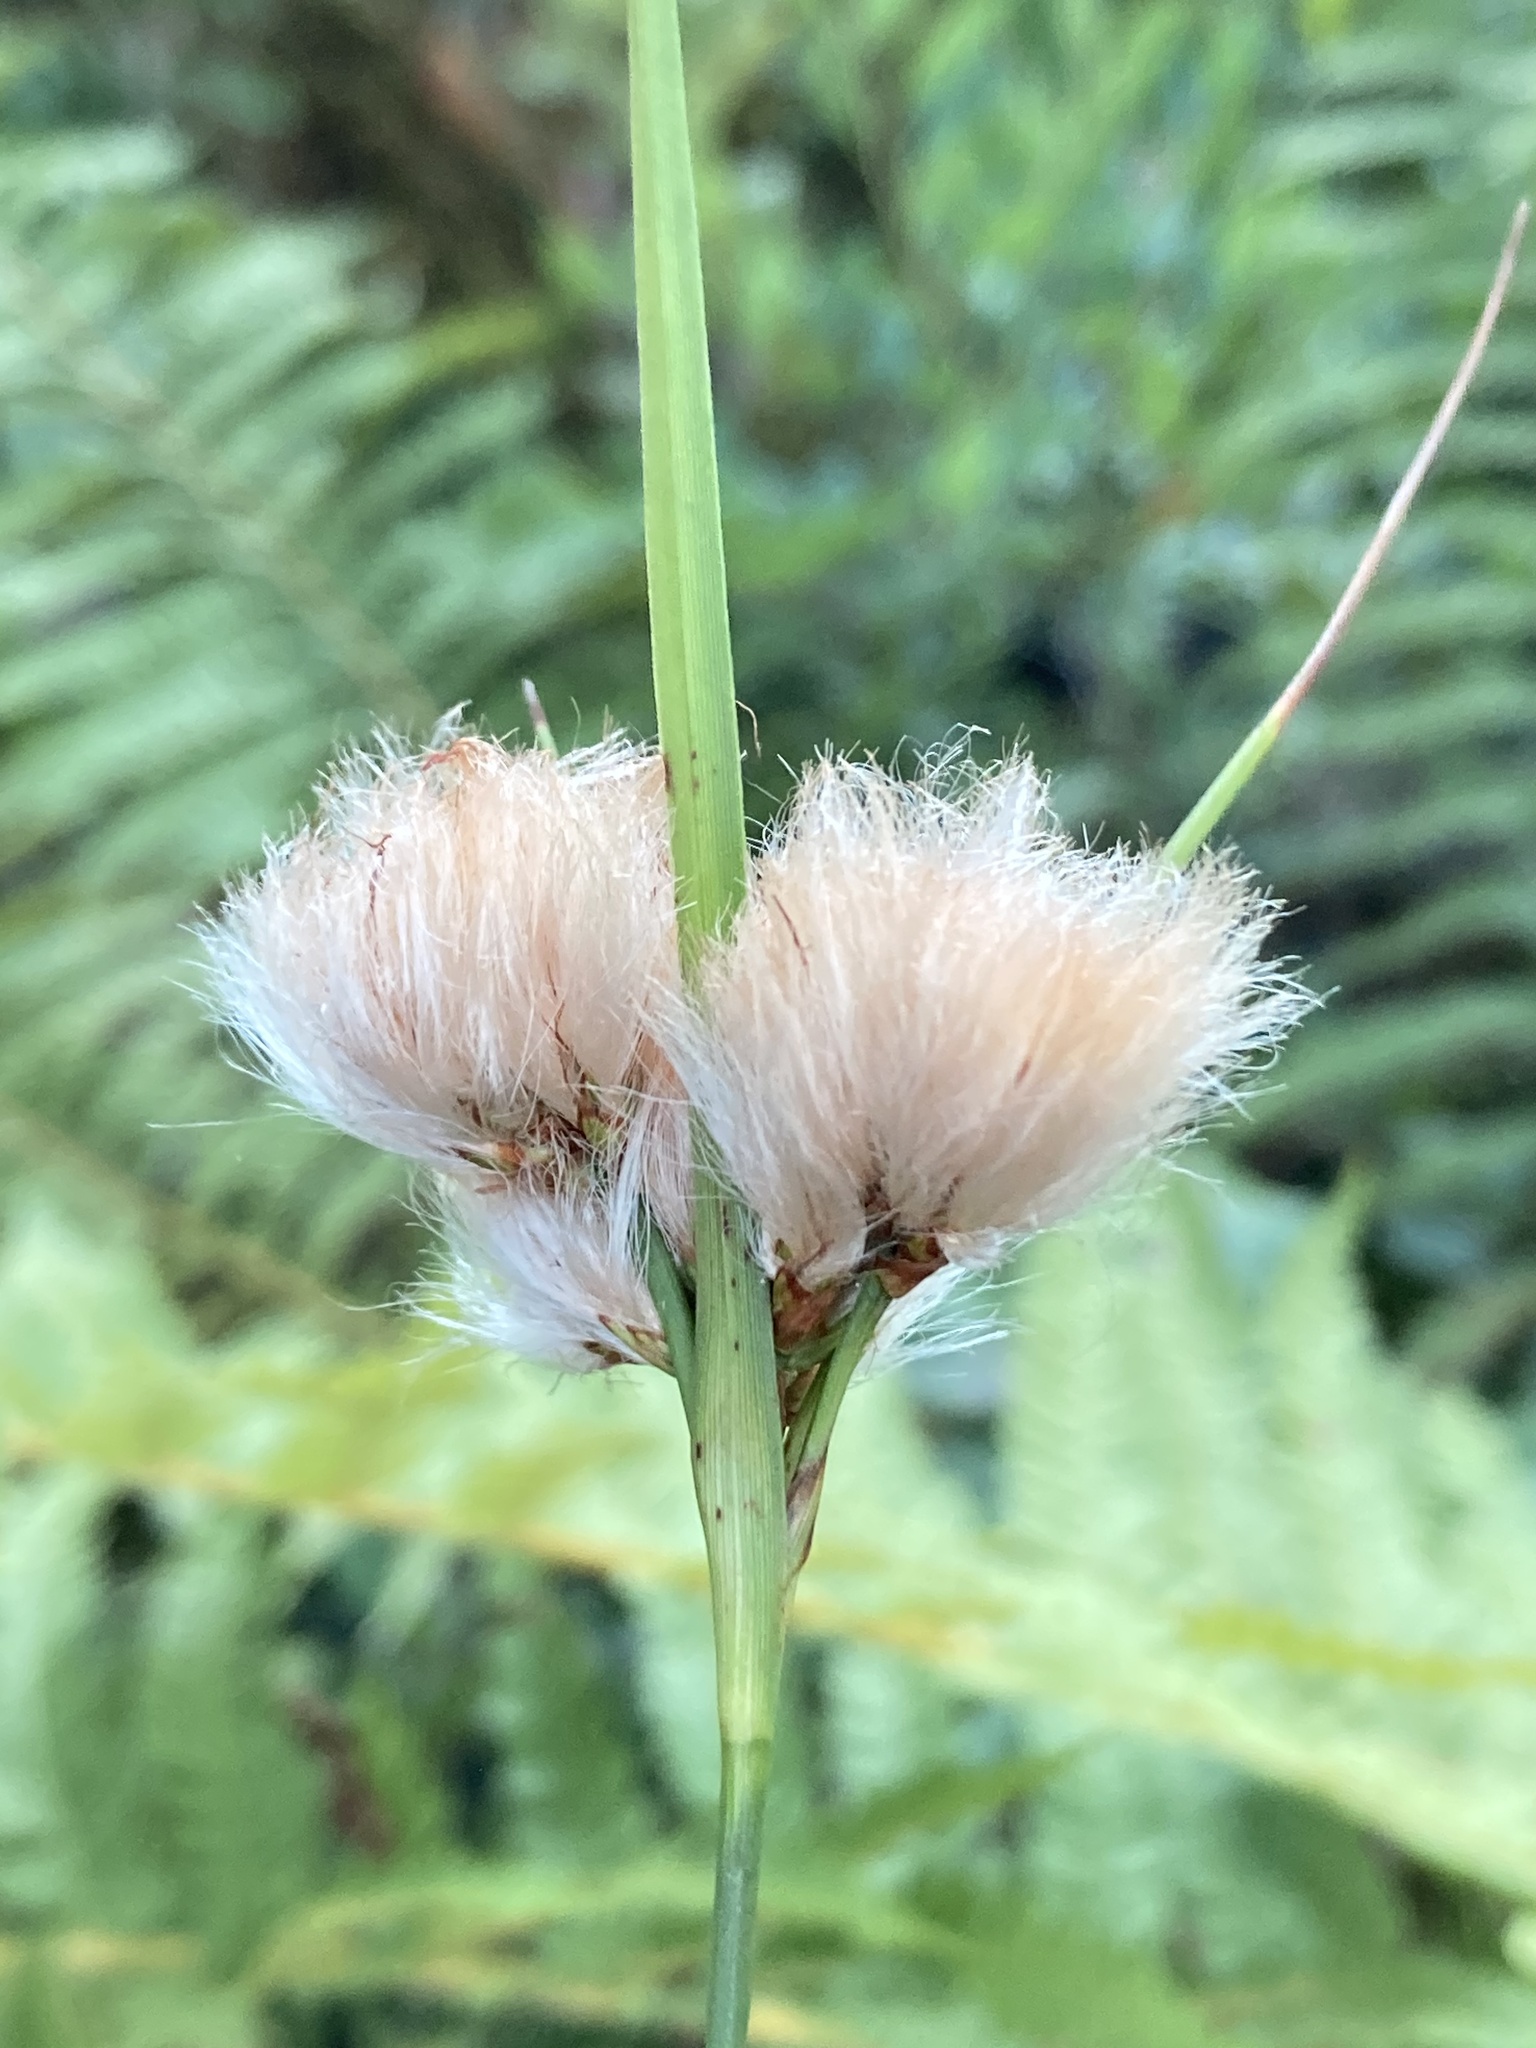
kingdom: Plantae
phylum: Tracheophyta
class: Liliopsida
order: Poales
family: Cyperaceae
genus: Eriophorum
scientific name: Eriophorum virginicum
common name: Tawny cottongrass
